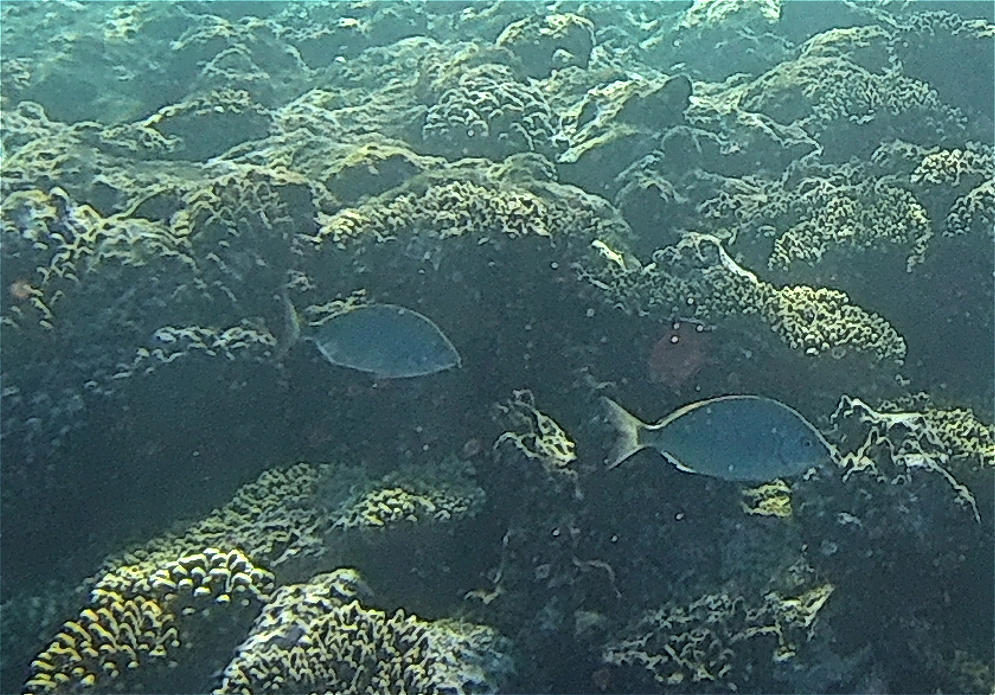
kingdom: Animalia
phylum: Chordata
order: Perciformes
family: Sparidae
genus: Diplodus
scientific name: Diplodus noct
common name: Arabian pinfish
